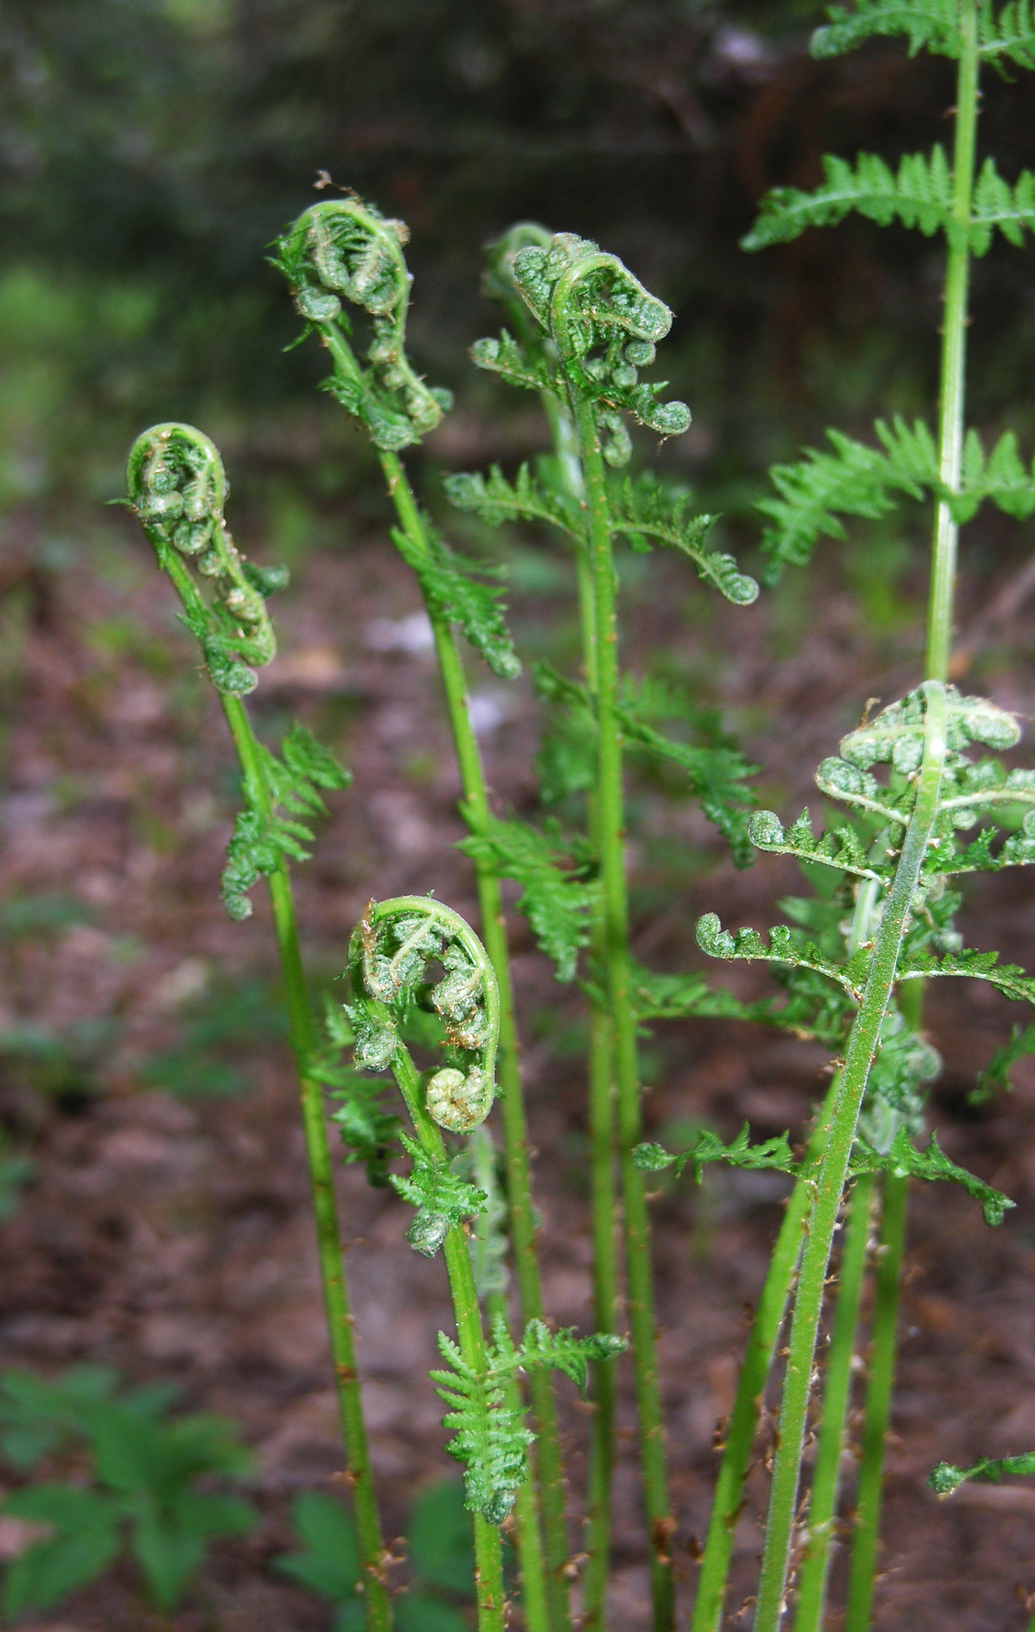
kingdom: Plantae
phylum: Tracheophyta
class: Polypodiopsida
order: Polypodiales
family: Athyriaceae
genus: Athyrium
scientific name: Athyrium filix-femina
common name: Lady fern
